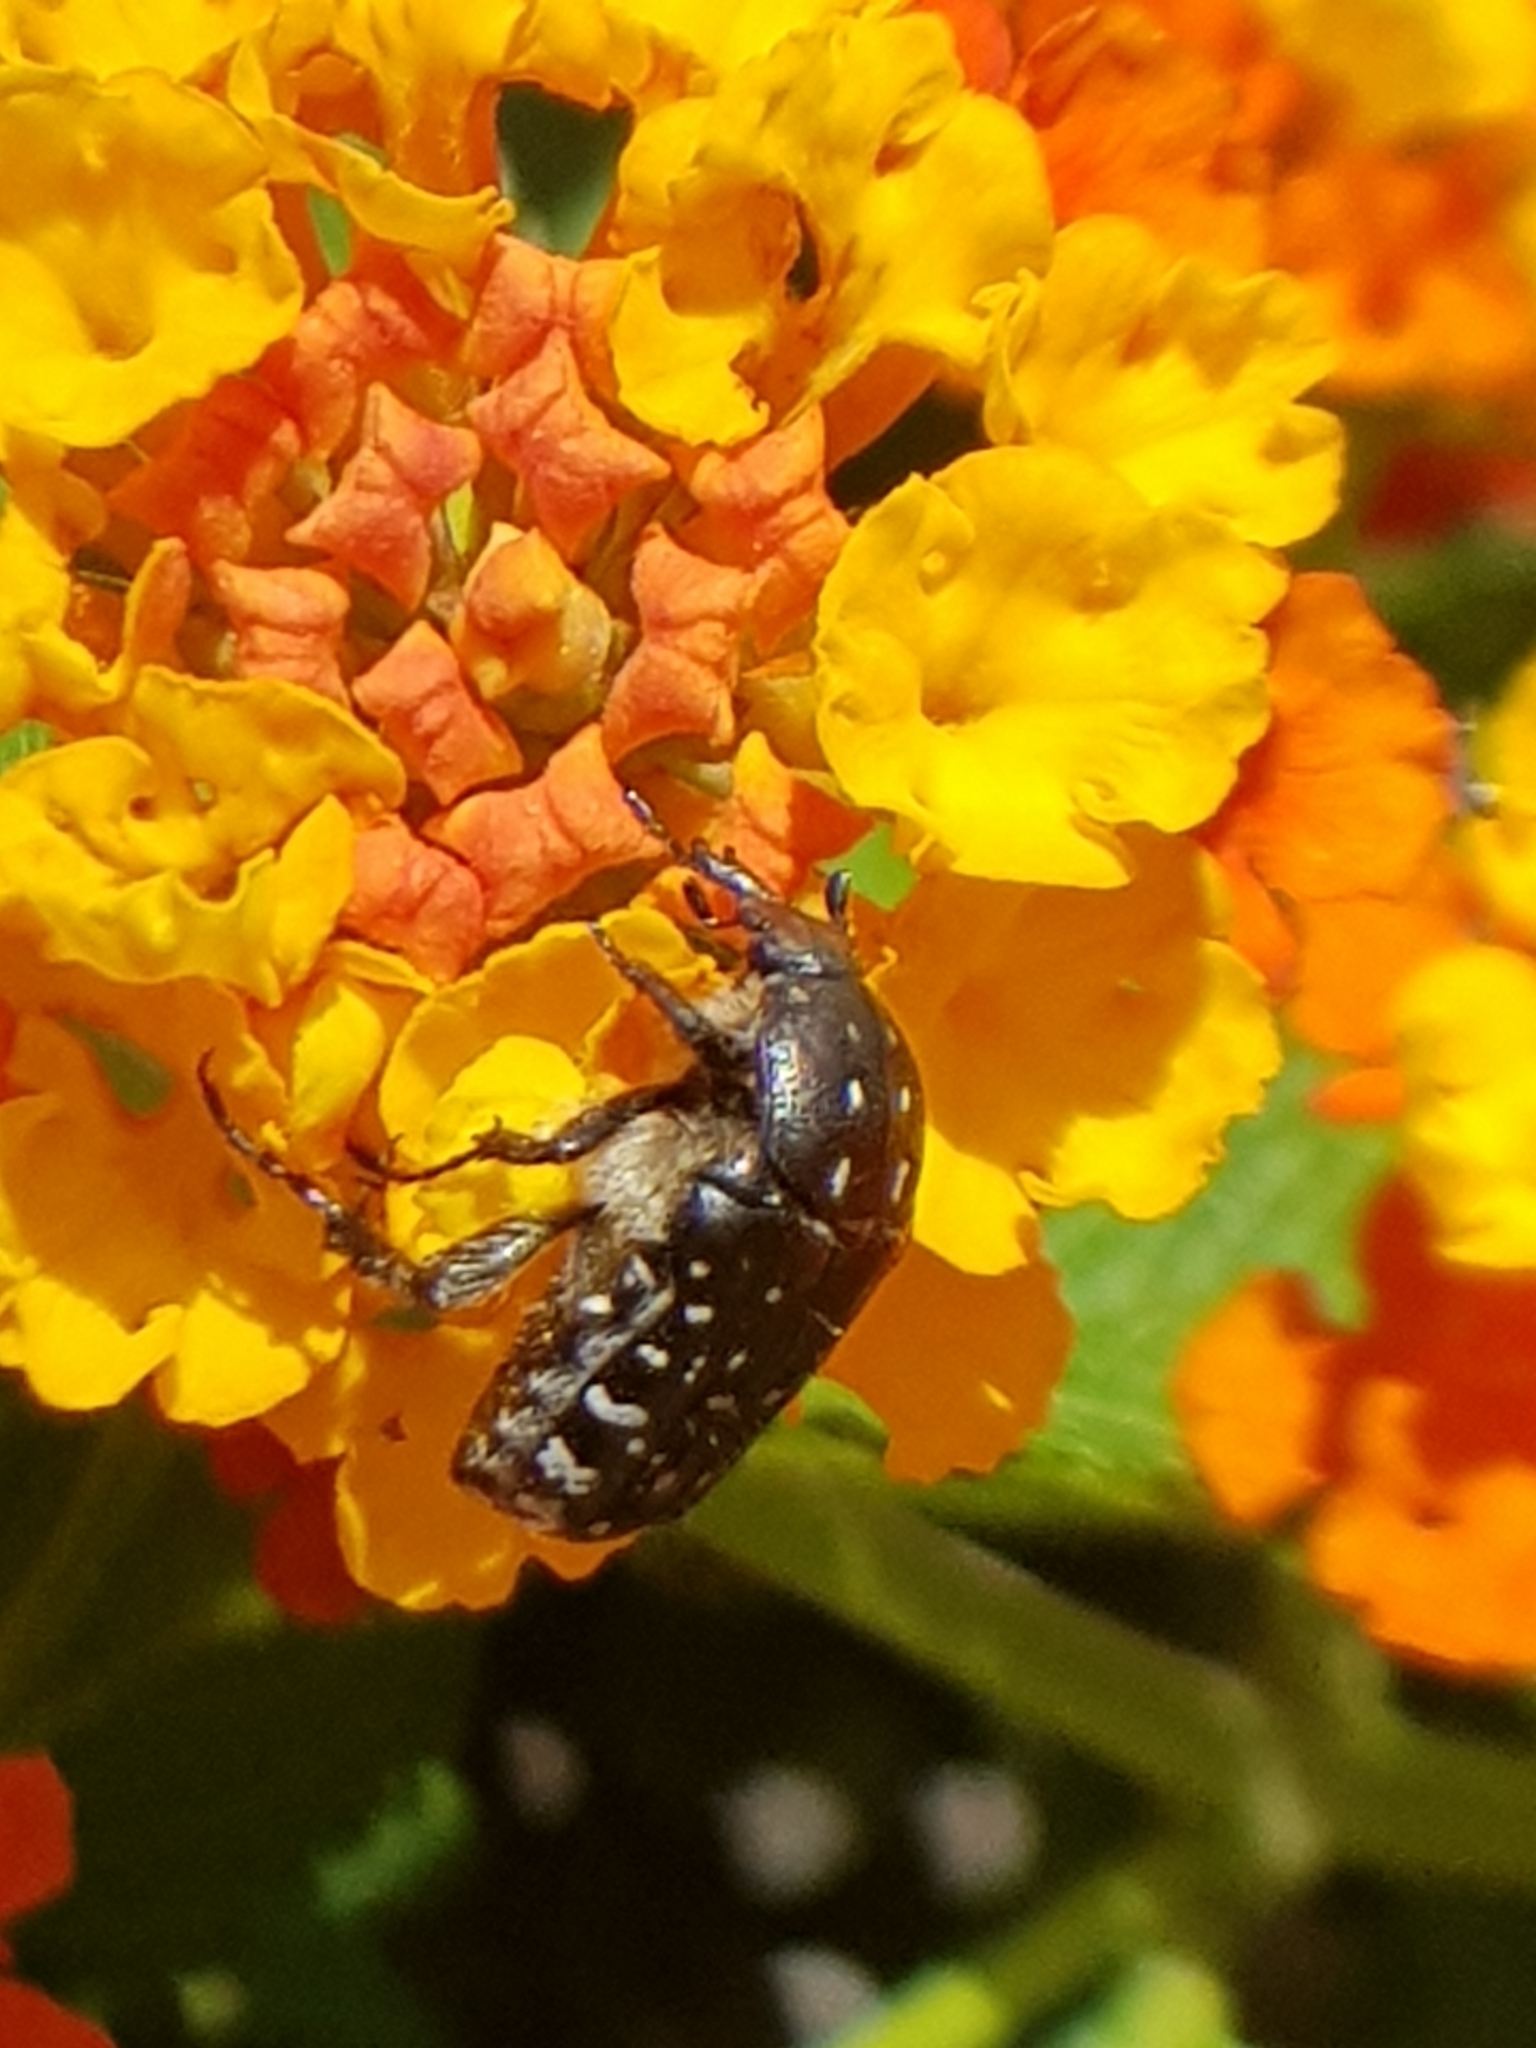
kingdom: Animalia
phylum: Arthropoda
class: Insecta
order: Coleoptera
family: Scarabaeidae
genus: Oxythyrea
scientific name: Oxythyrea funesta
